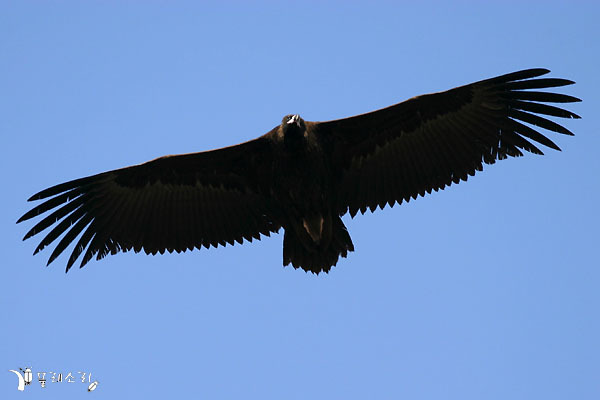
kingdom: Animalia
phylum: Chordata
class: Aves
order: Accipitriformes
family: Accipitridae
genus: Aegypius
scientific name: Aegypius monachus
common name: Cinereous vulture
